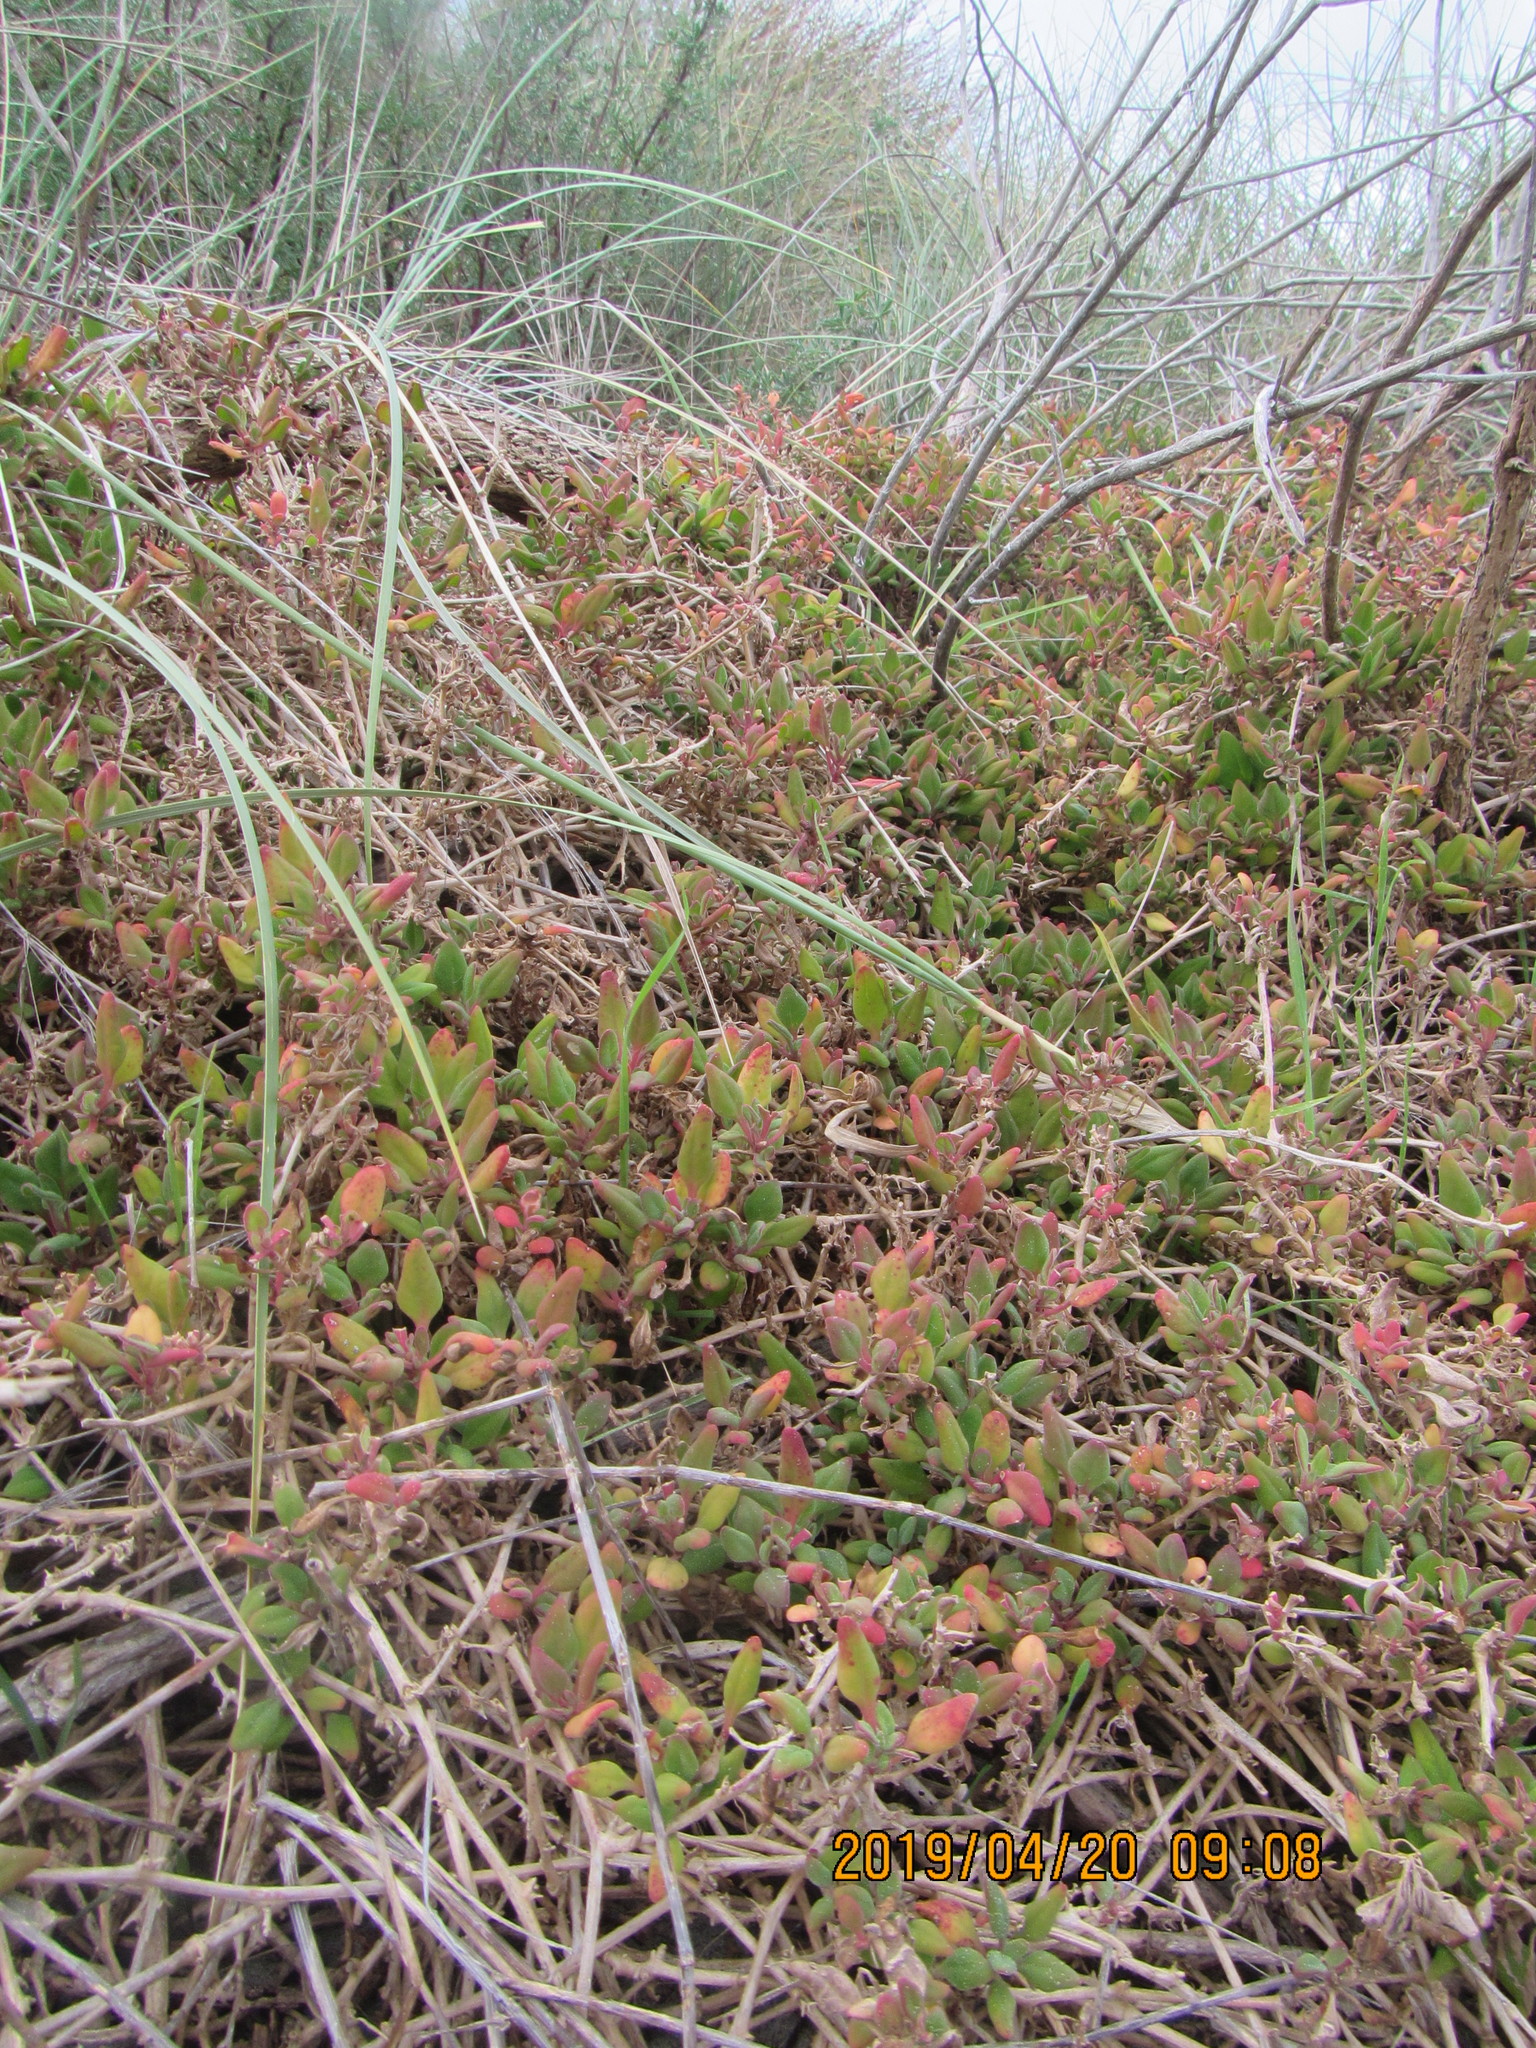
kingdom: Plantae
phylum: Tracheophyta
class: Magnoliopsida
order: Caryophyllales
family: Aizoaceae
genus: Tetragonia
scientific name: Tetragonia implexicoma
